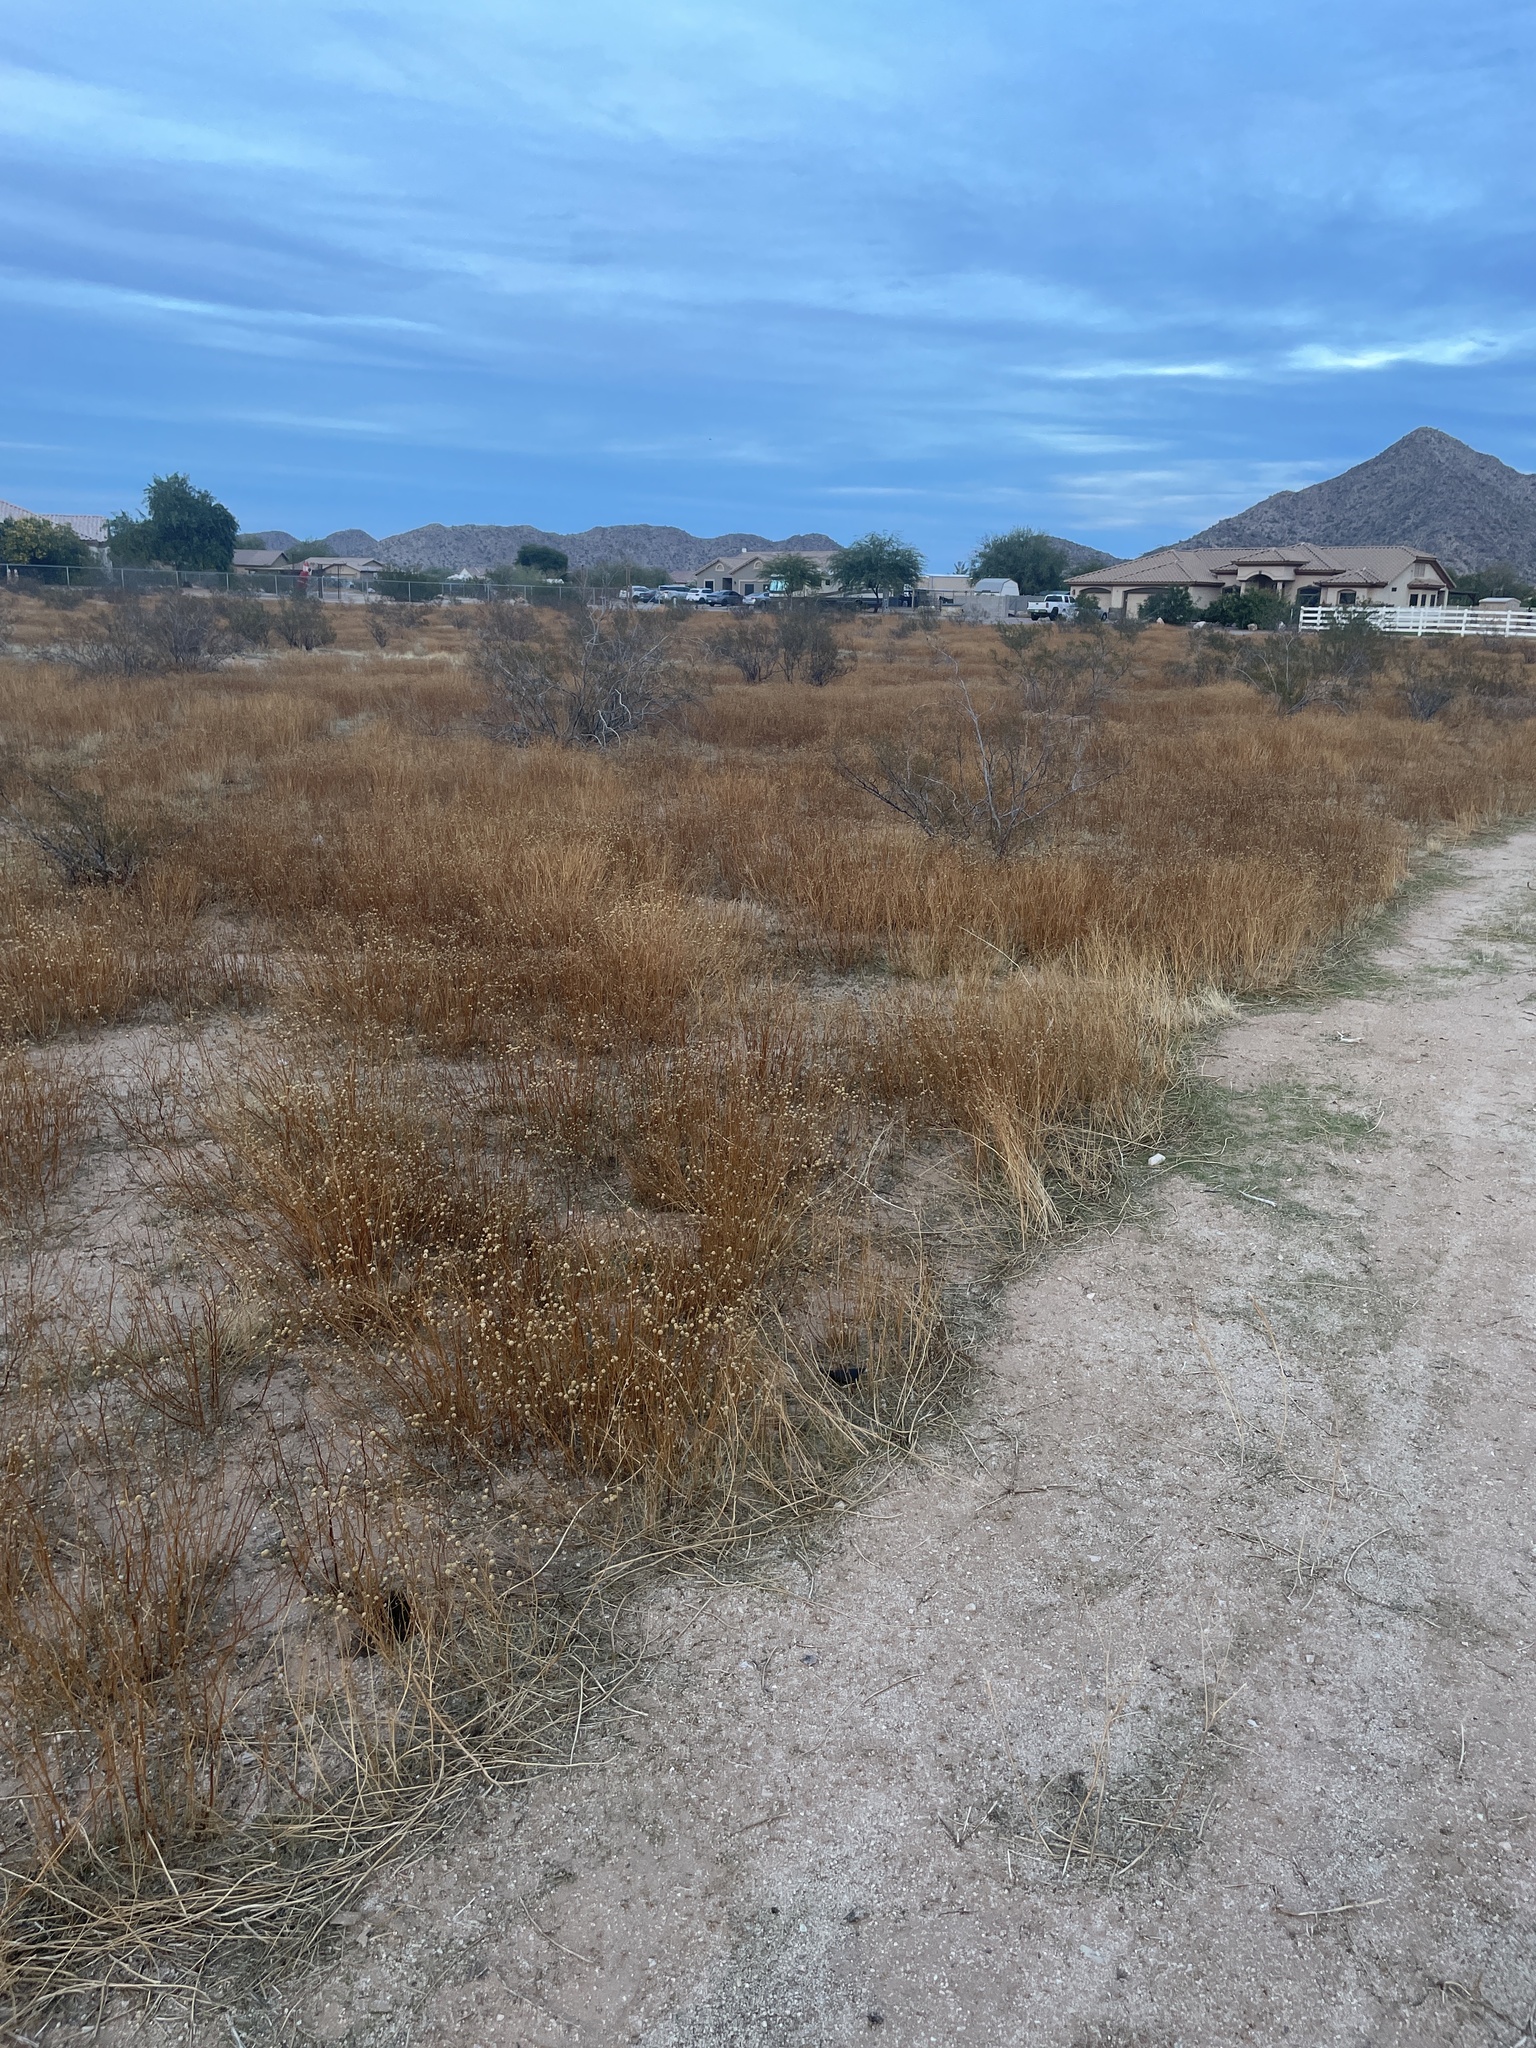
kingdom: Plantae
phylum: Tracheophyta
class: Magnoliopsida
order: Asterales
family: Asteraceae
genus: Oncosiphon
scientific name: Oncosiphon pilulifer
